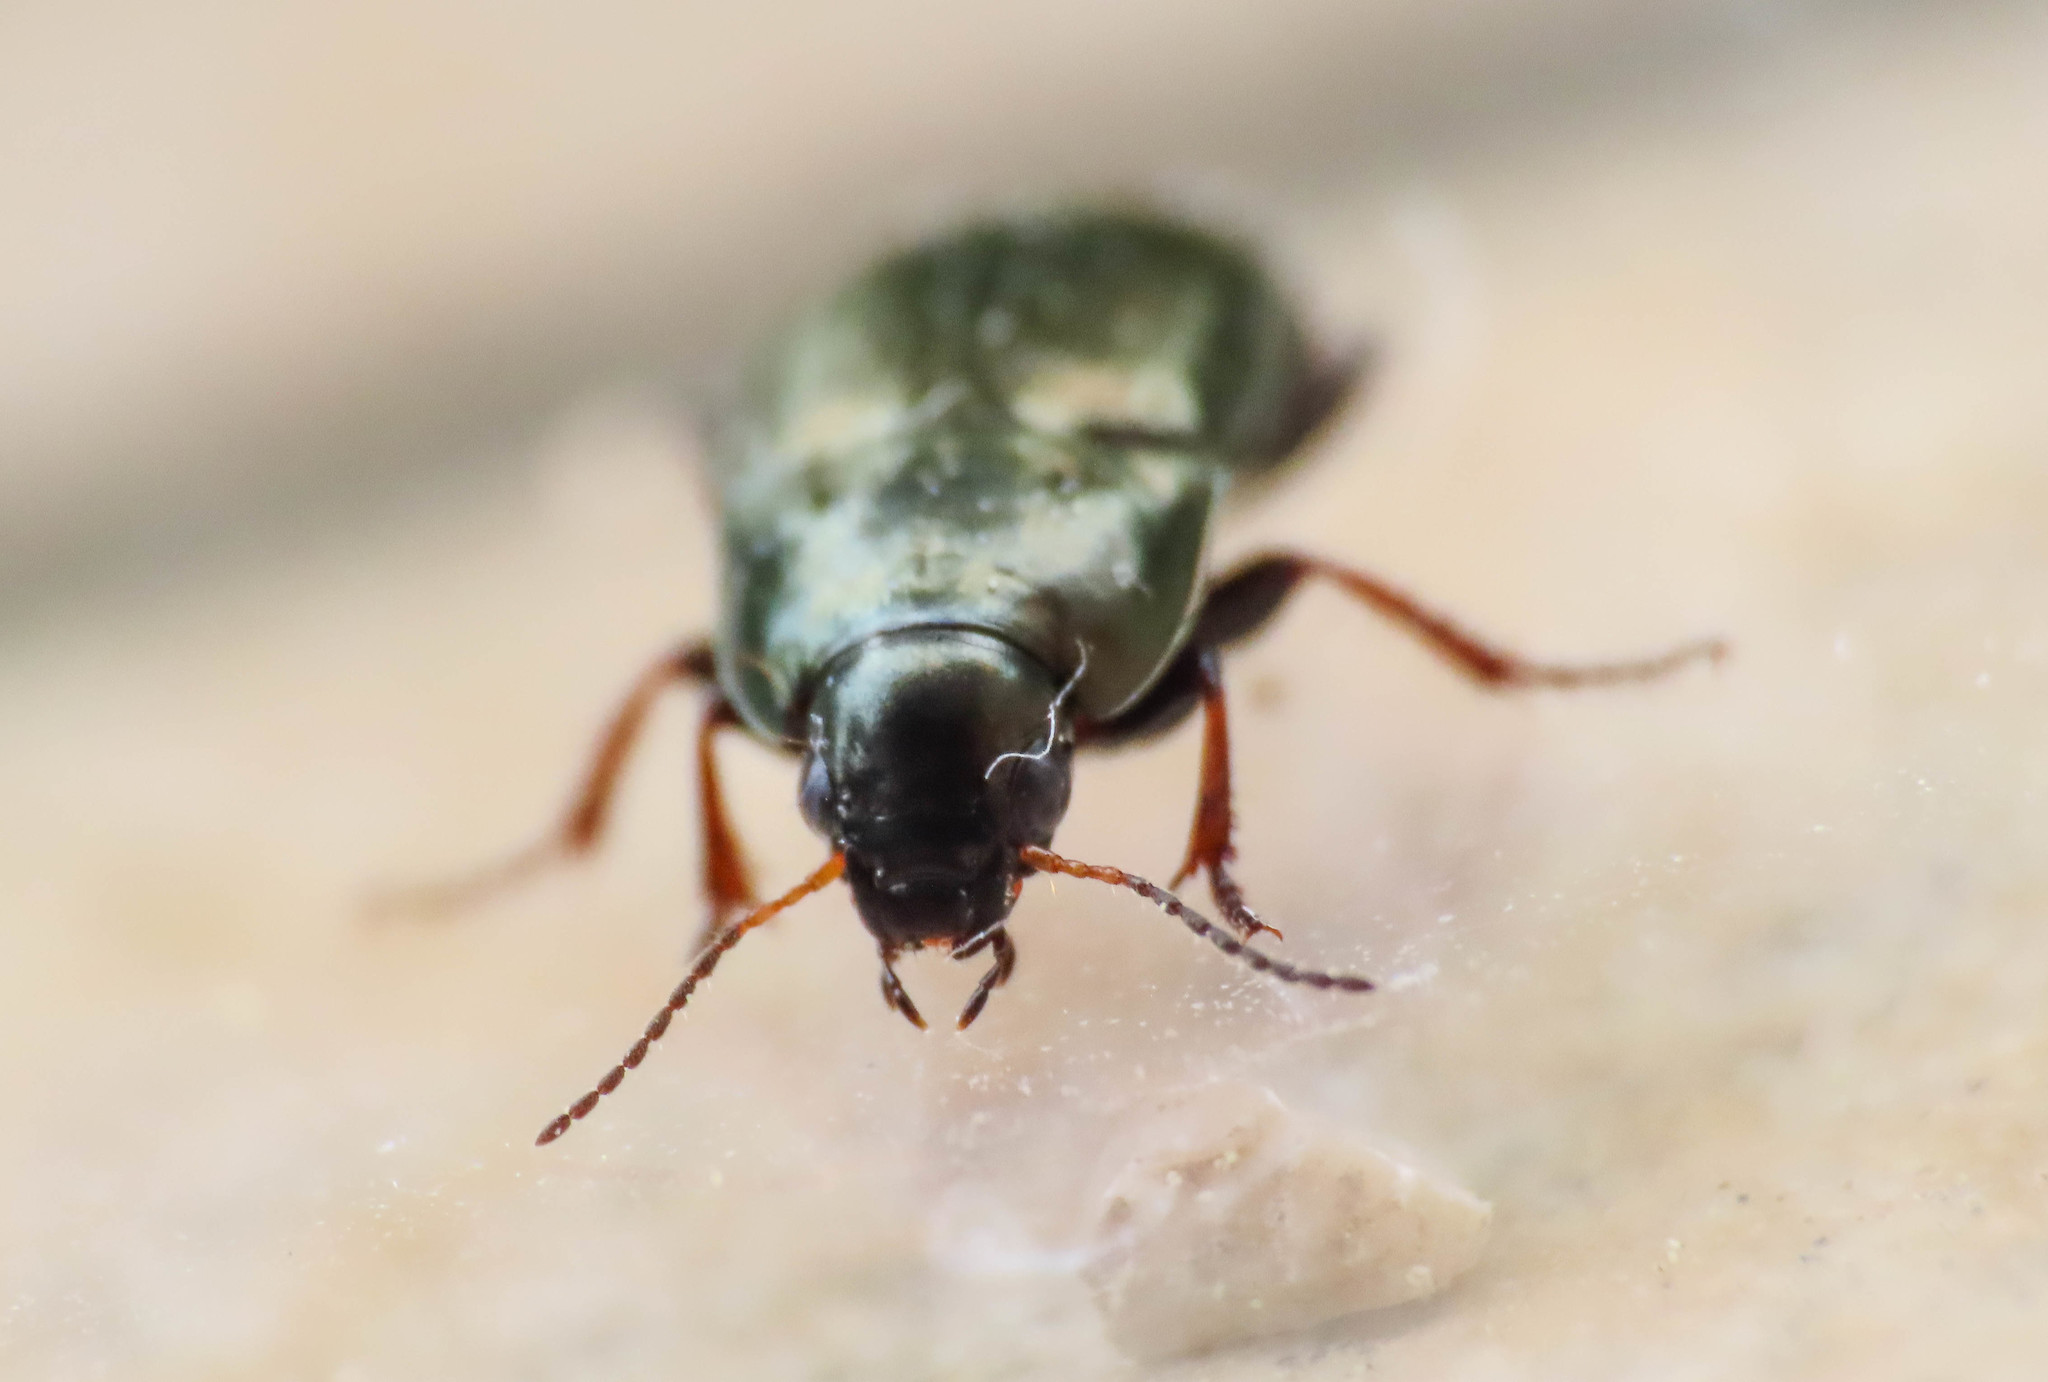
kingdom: Animalia
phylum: Arthropoda
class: Insecta
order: Coleoptera
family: Carabidae
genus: Amara
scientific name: Amara aenea
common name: Common sun beetle
